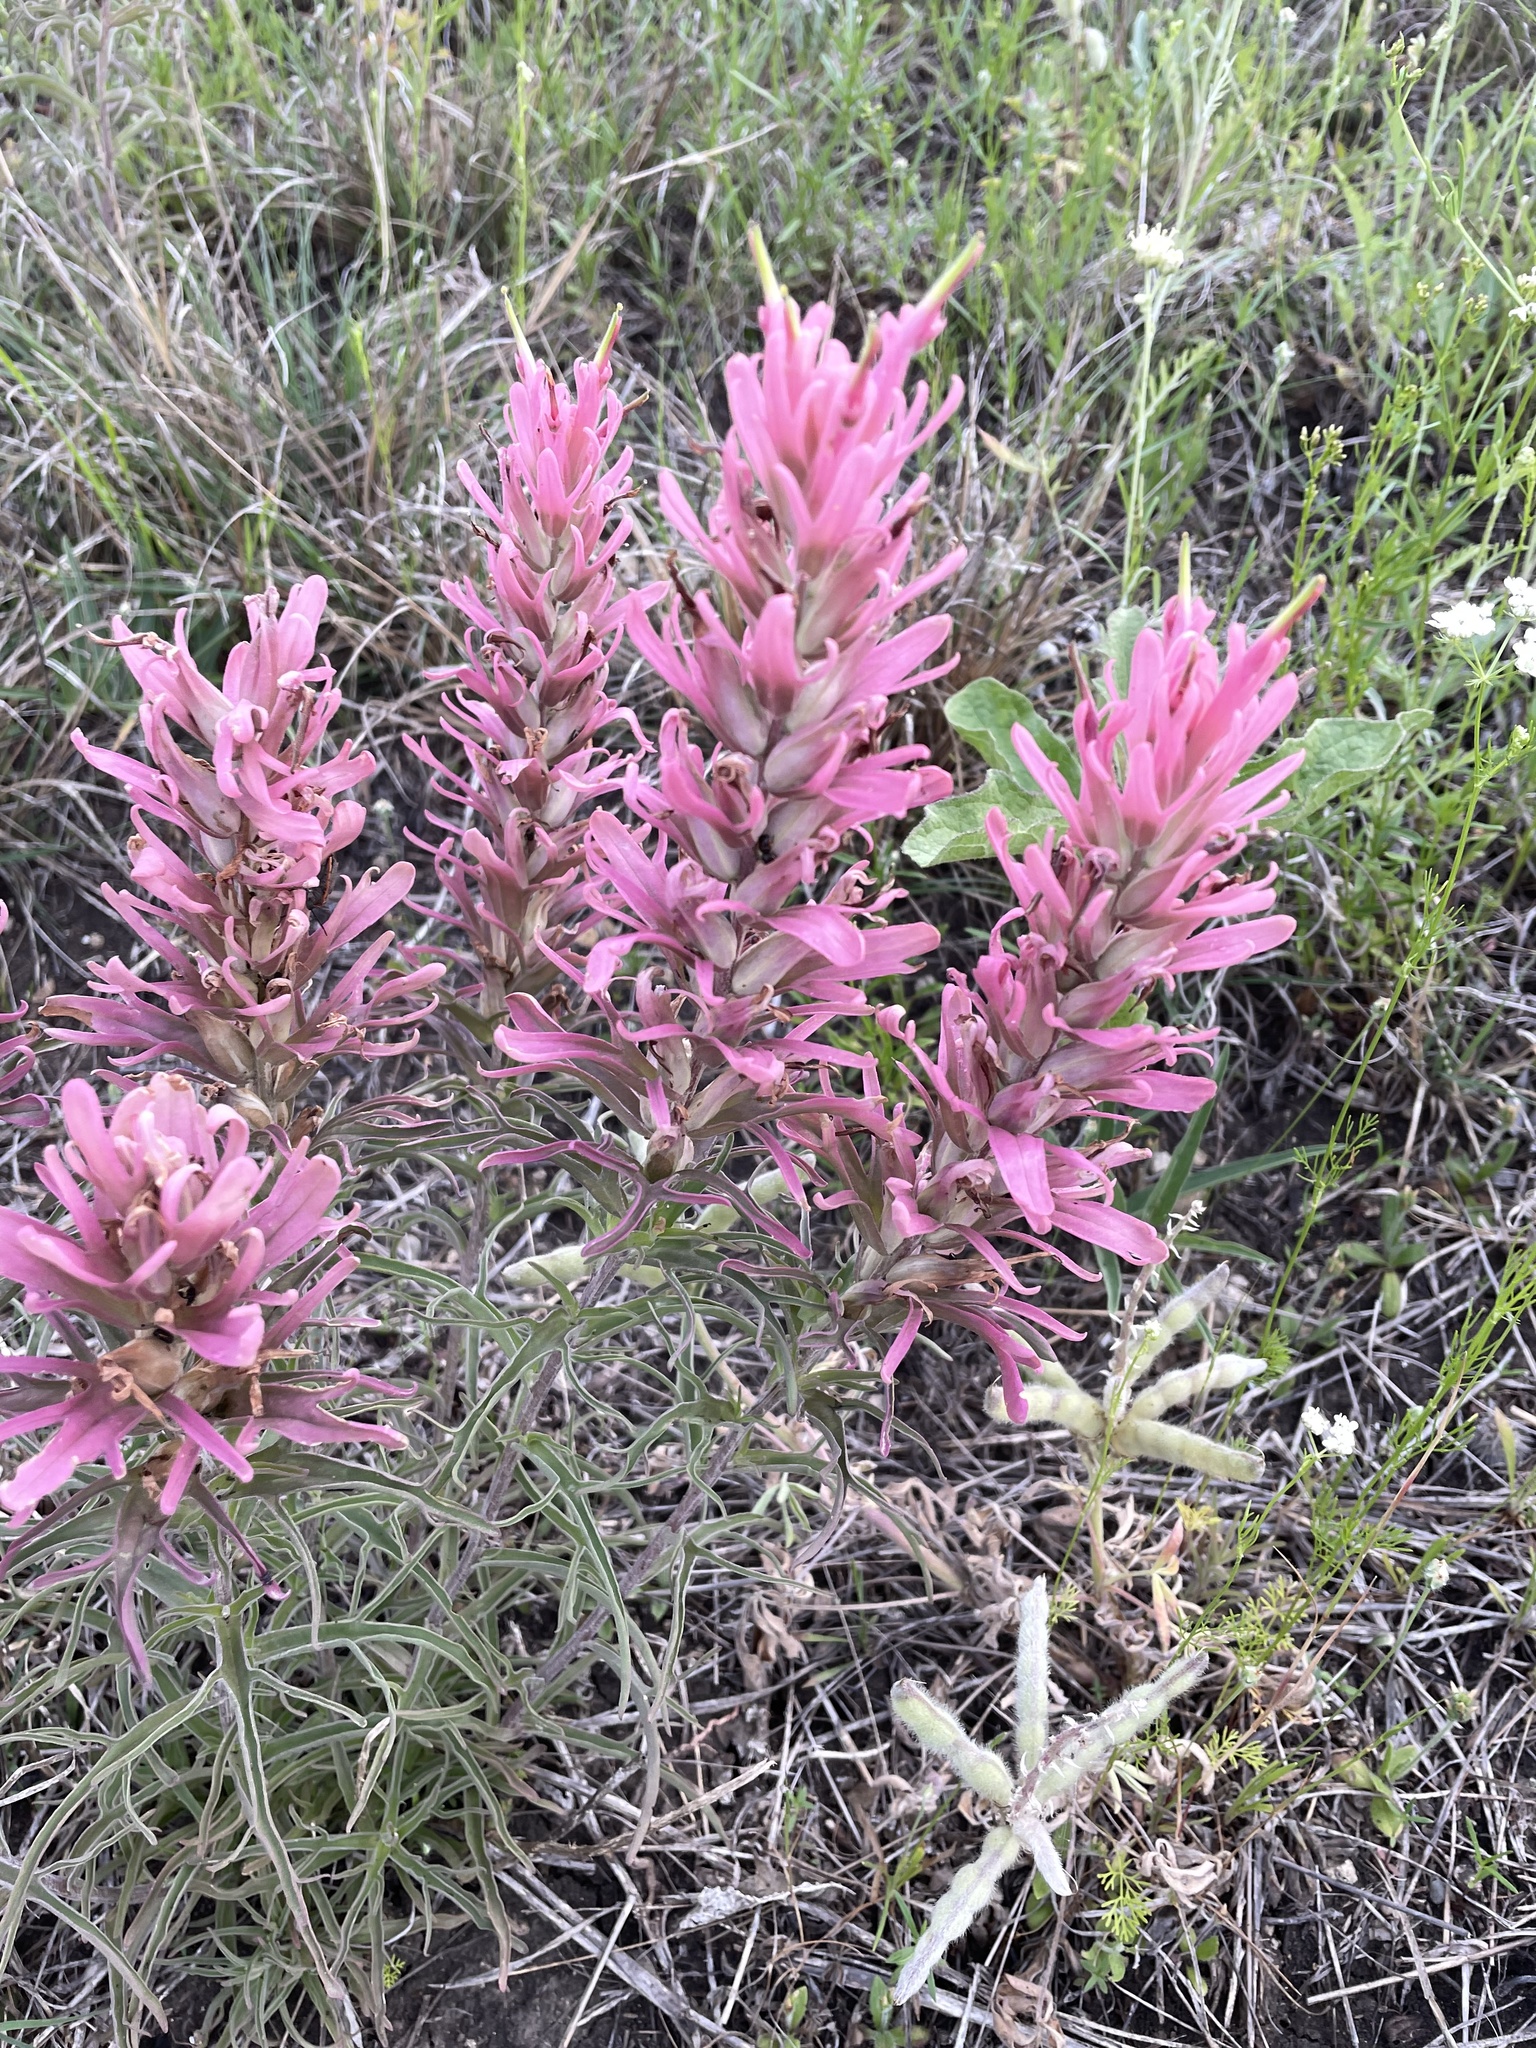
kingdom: Plantae
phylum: Tracheophyta
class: Magnoliopsida
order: Lamiales
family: Orobanchaceae
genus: Castilleja
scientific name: Castilleja purpurea
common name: Plains paintbrush
